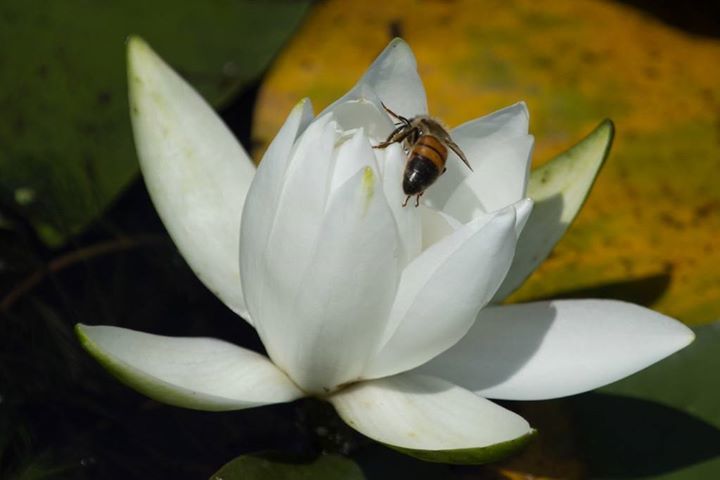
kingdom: Animalia
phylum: Arthropoda
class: Insecta
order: Hymenoptera
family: Apidae
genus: Apis
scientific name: Apis mellifera
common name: Honey bee
